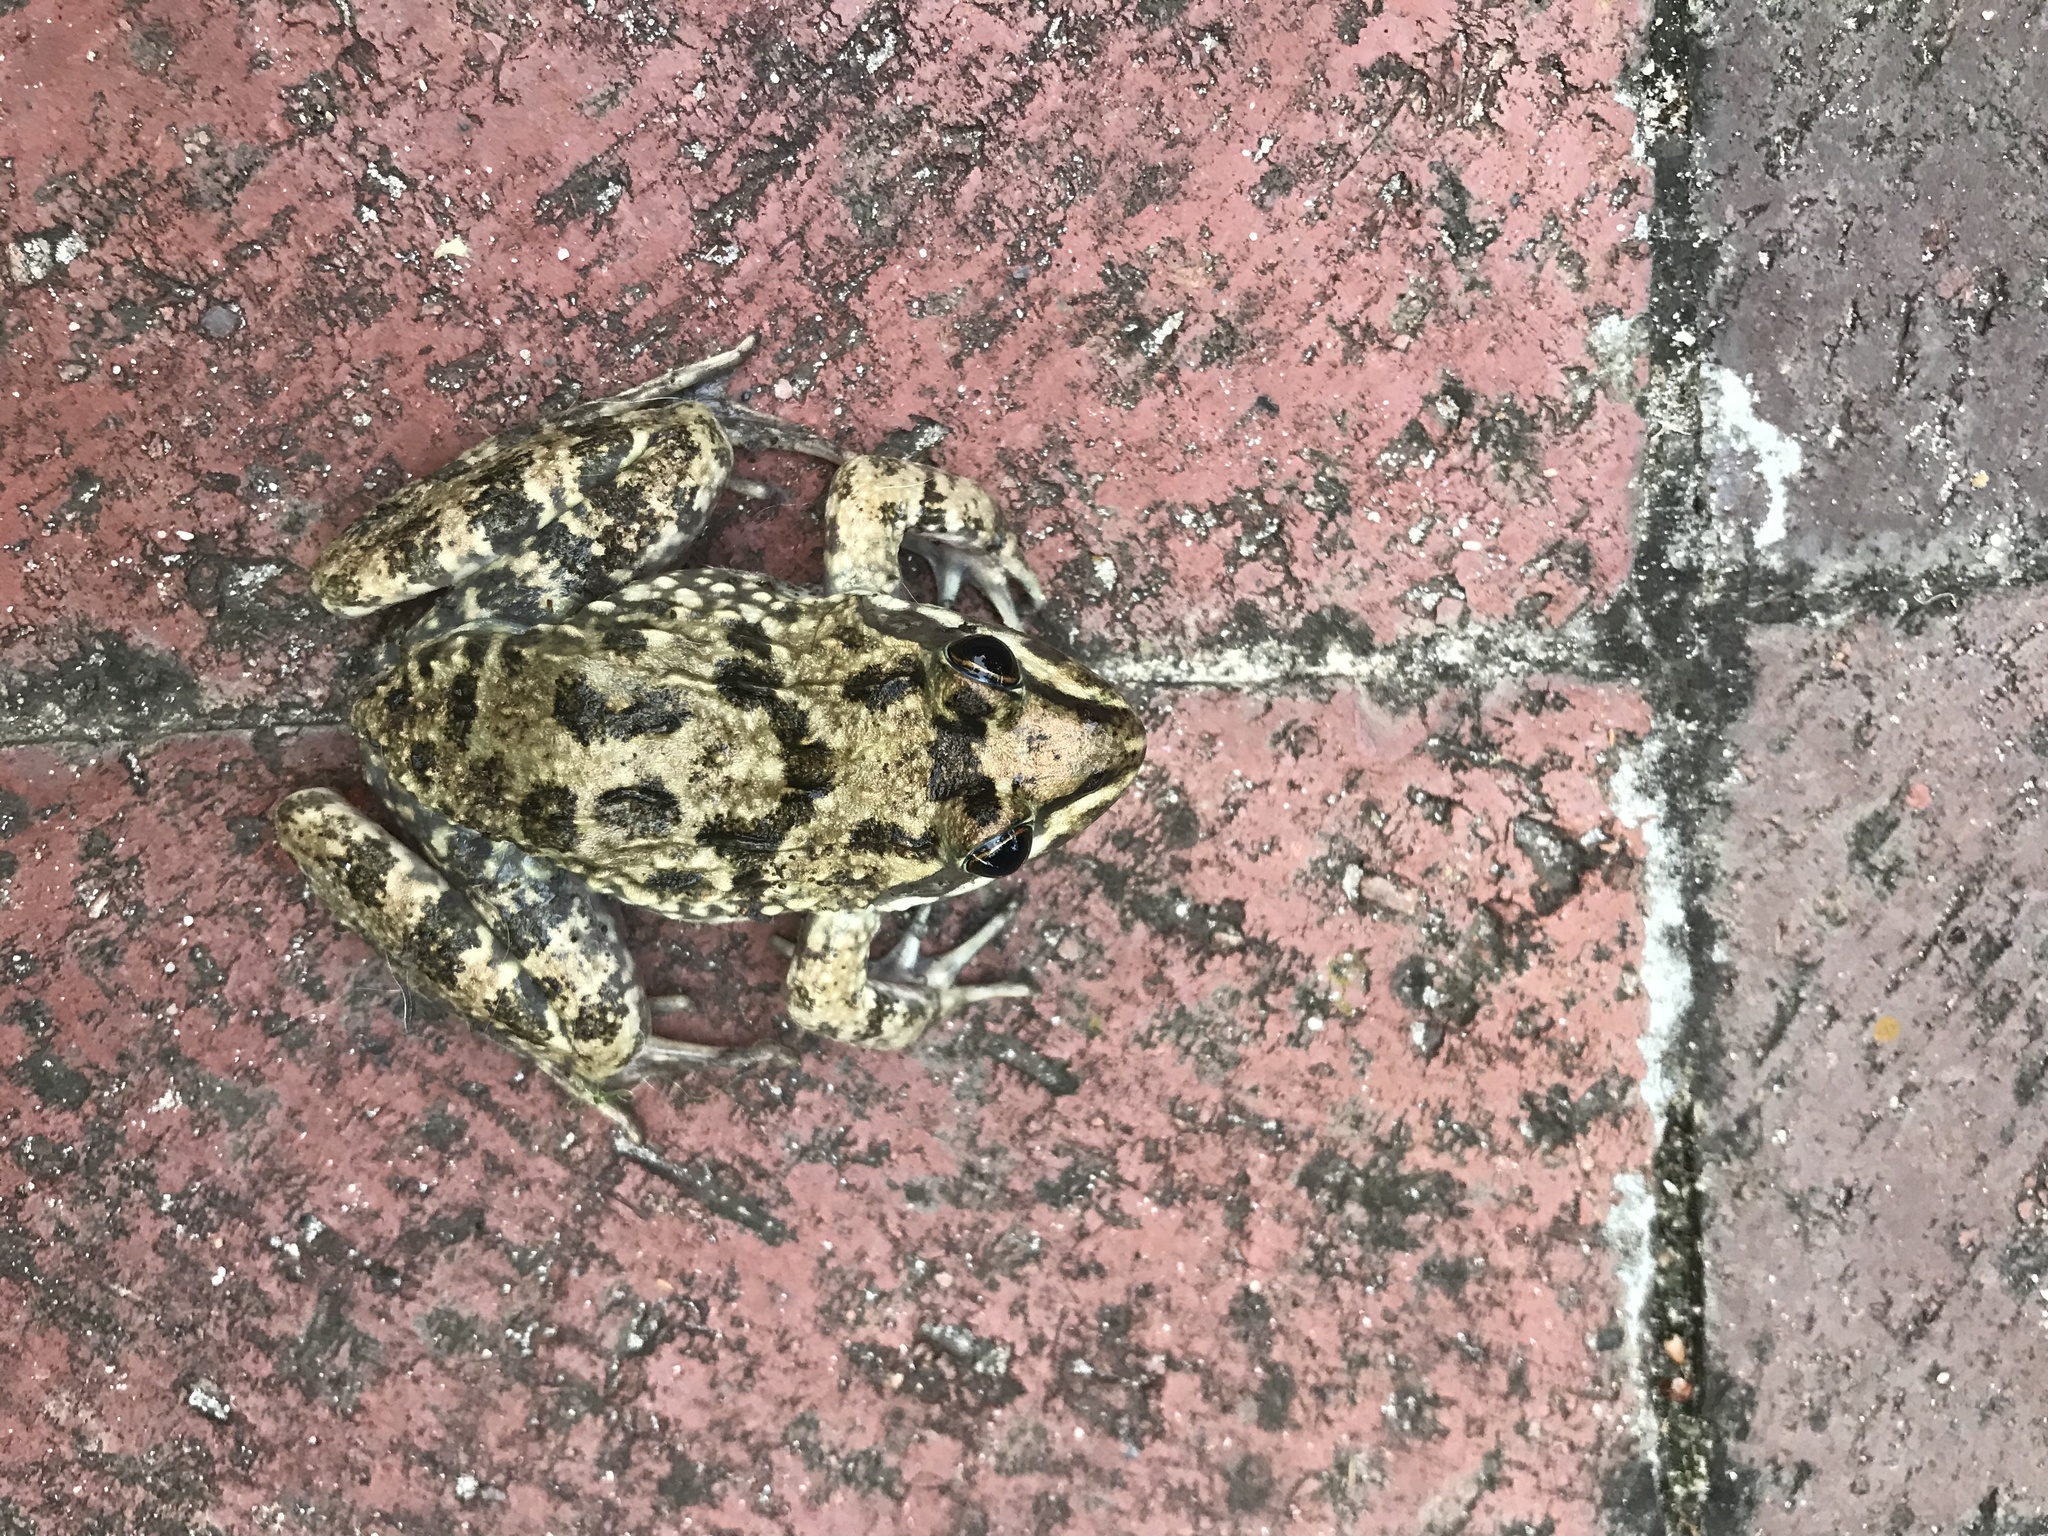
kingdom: Animalia
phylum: Chordata
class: Amphibia
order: Anura
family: Pyxicephalidae
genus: Amietia
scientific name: Amietia fuscigula
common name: Cape rana
